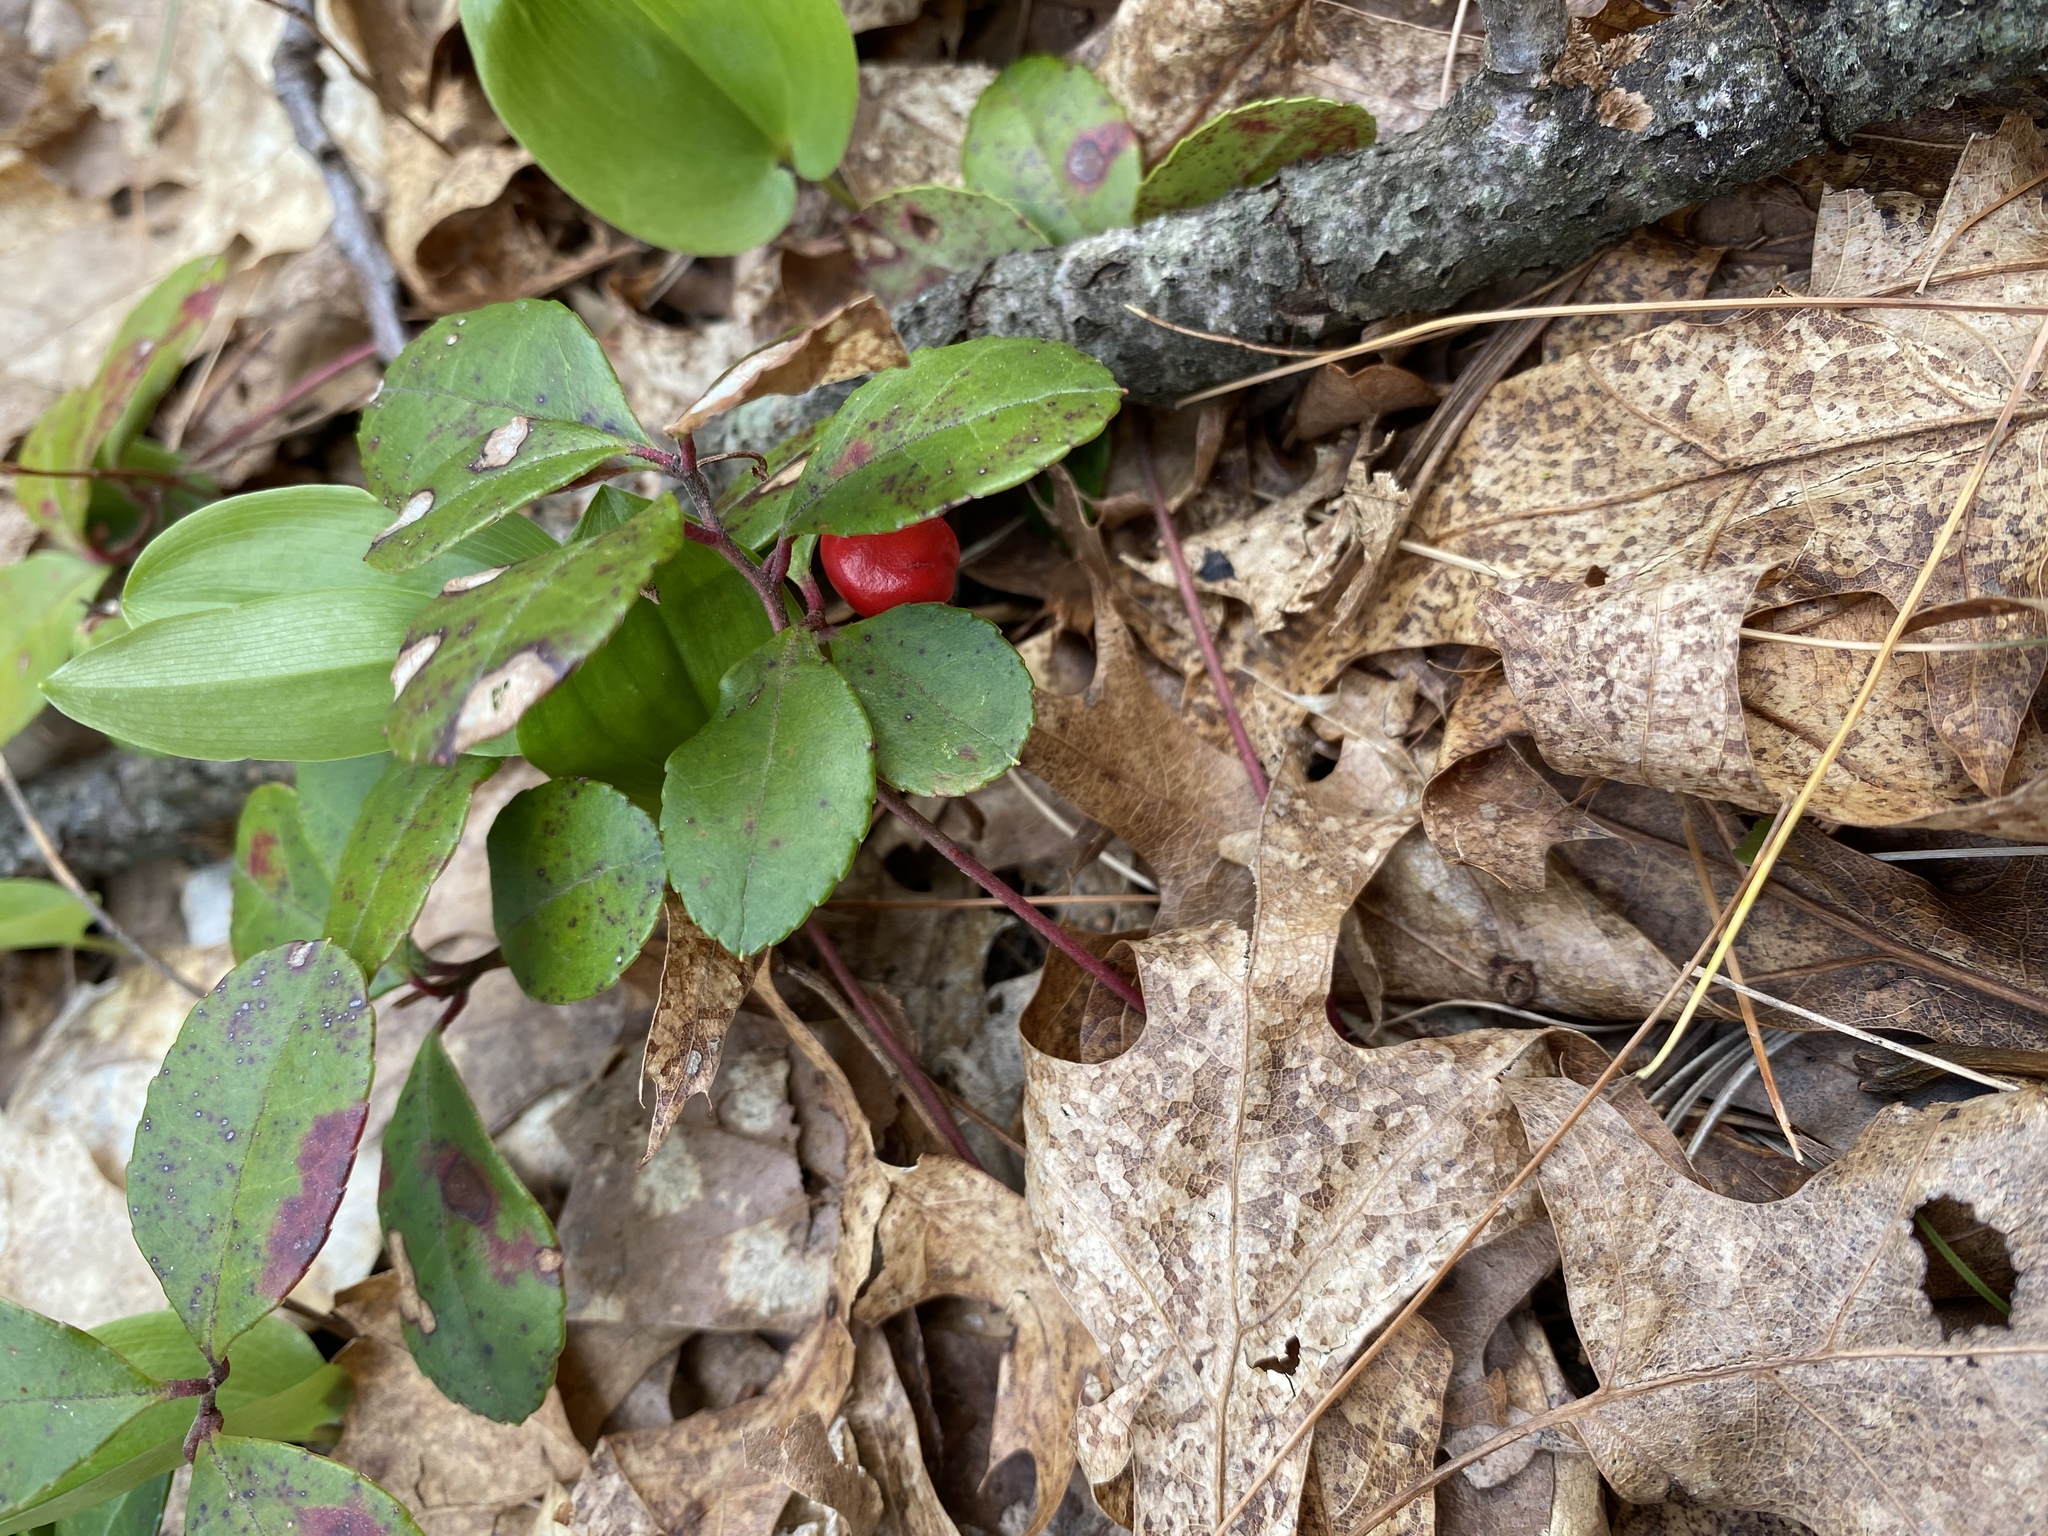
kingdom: Plantae
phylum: Tracheophyta
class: Magnoliopsida
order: Ericales
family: Ericaceae
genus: Gaultheria
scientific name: Gaultheria procumbens
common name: Checkerberry
